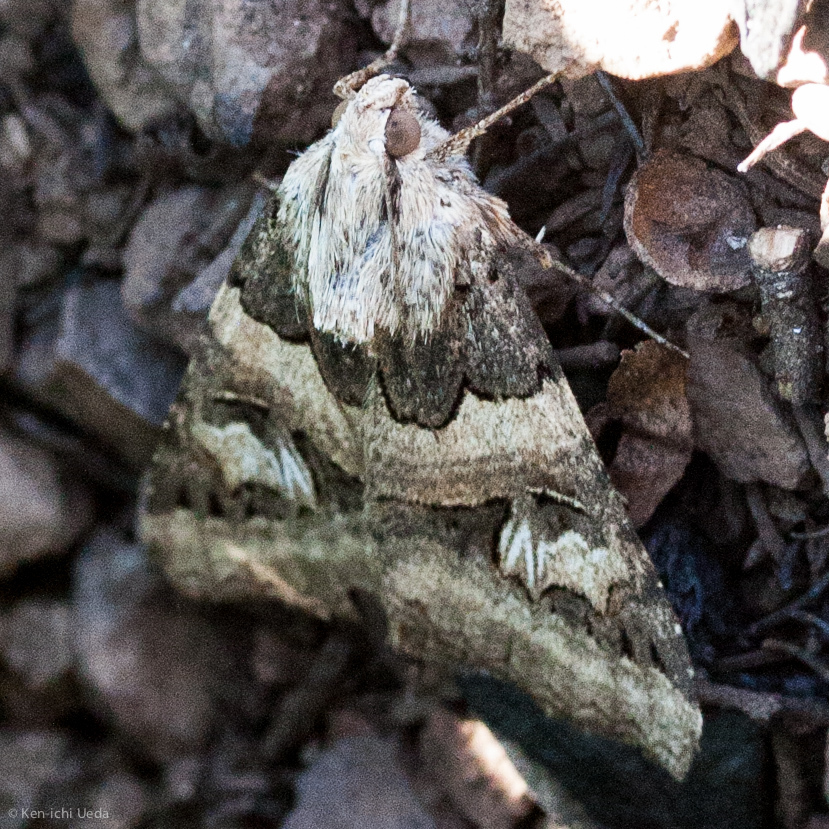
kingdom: Animalia
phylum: Arthropoda
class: Insecta
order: Lepidoptera
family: Erebidae
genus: Drasteria
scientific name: Drasteria divergens
